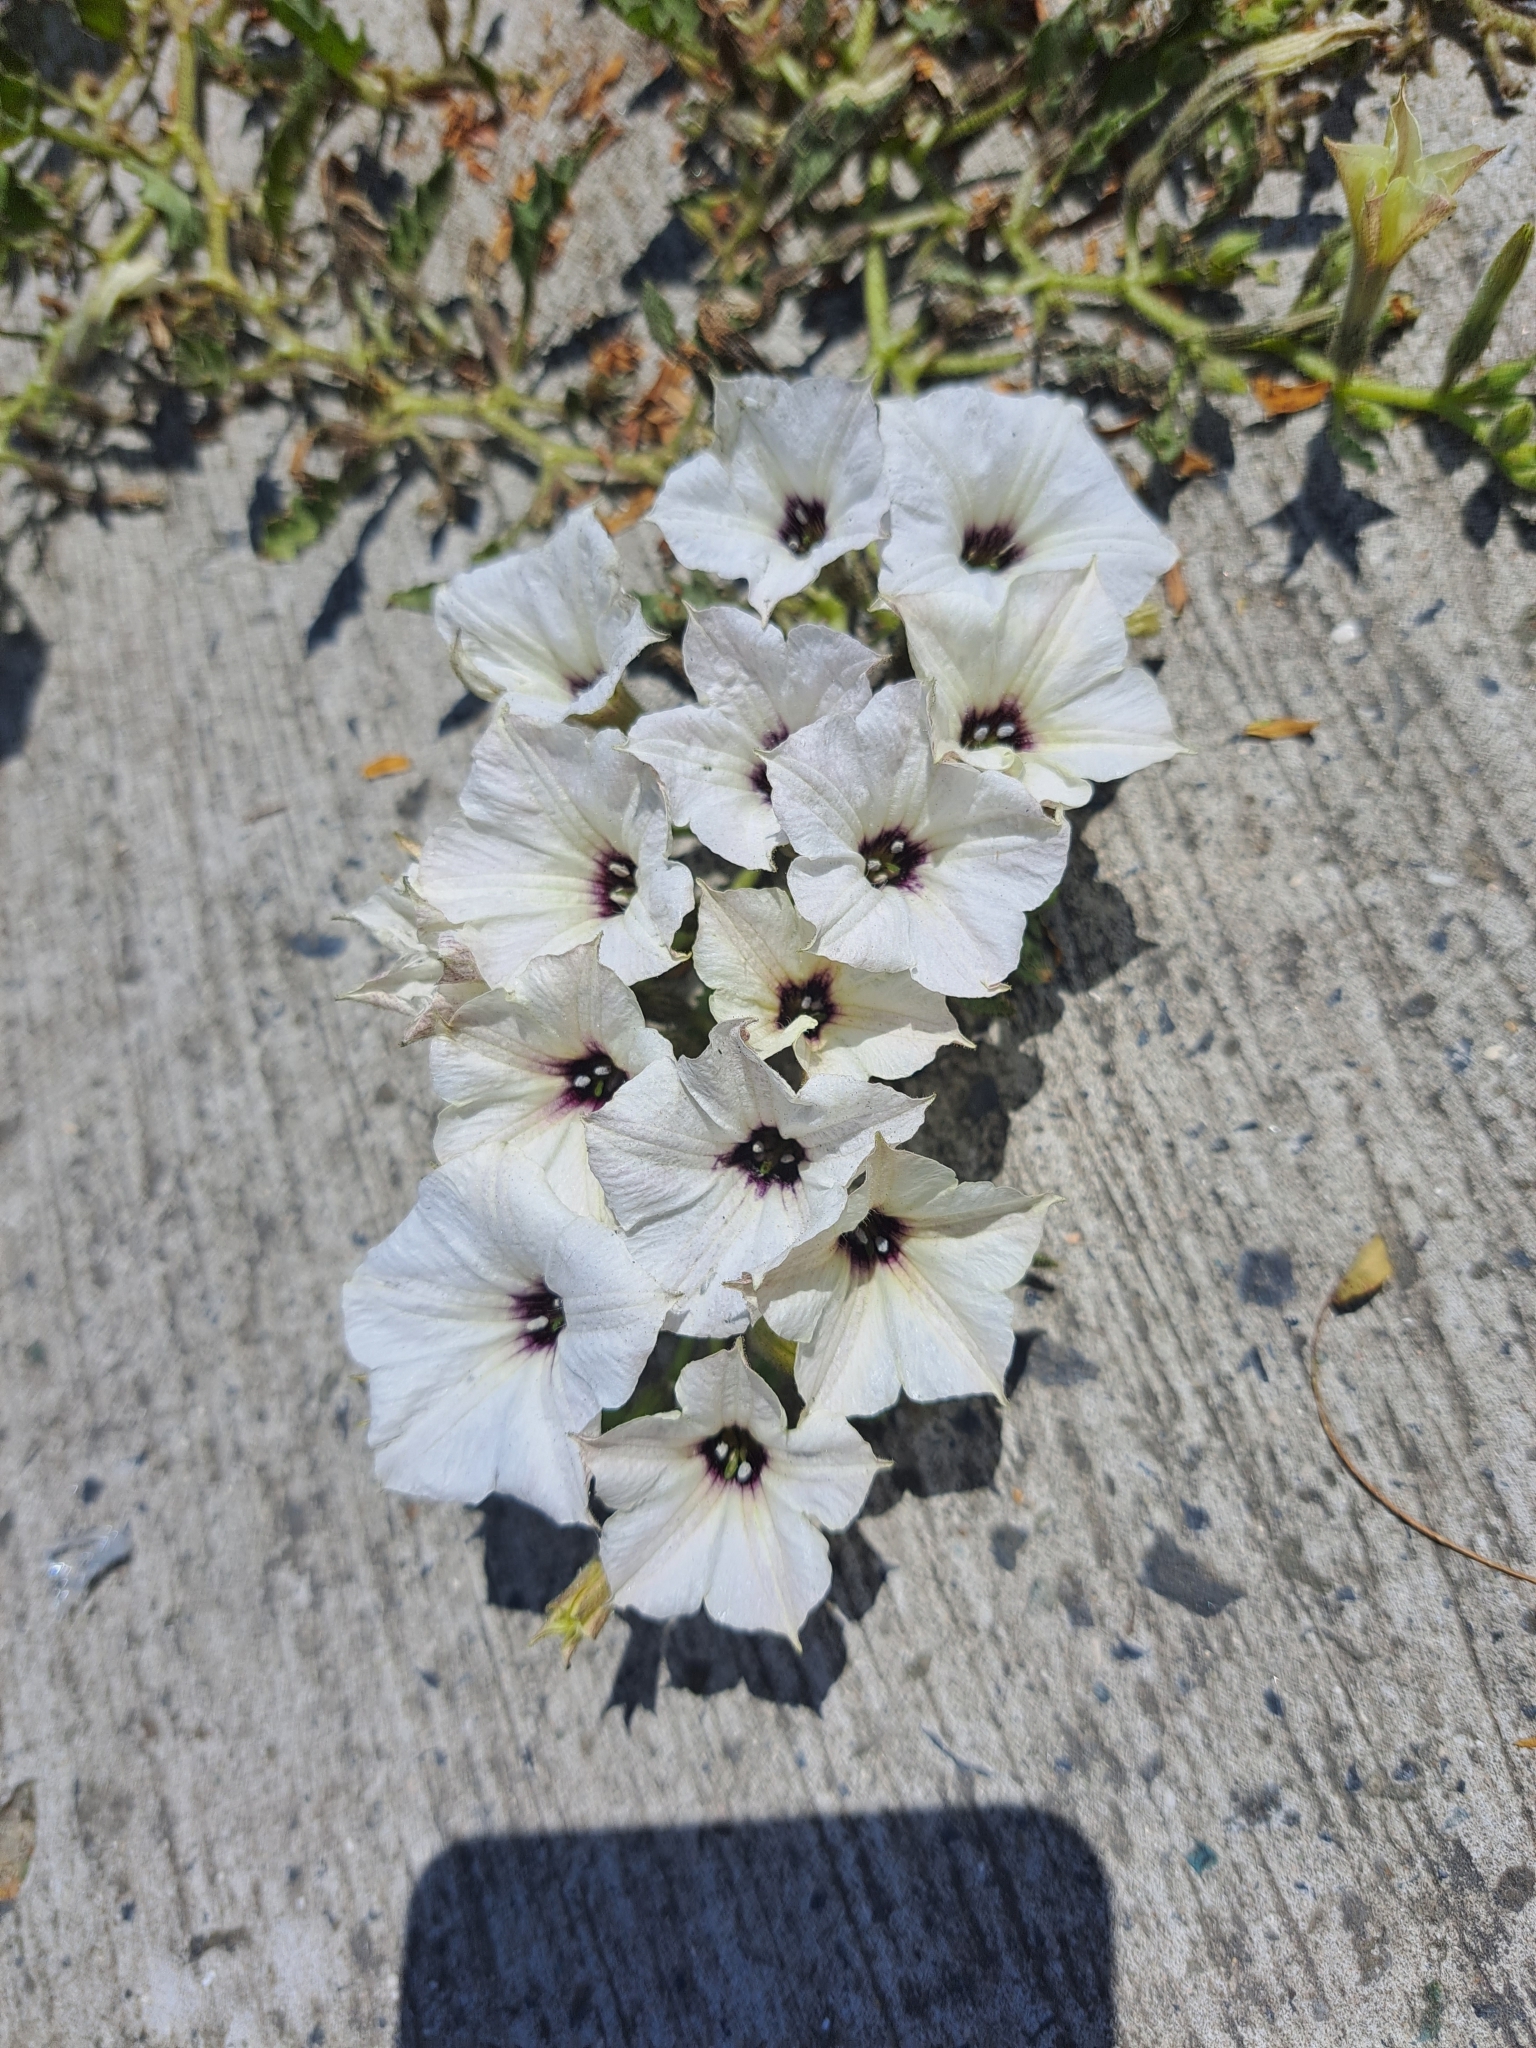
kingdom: Plantae
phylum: Tracheophyta
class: Magnoliopsida
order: Solanales
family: Solanaceae
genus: Exodeconus
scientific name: Exodeconus maritima
